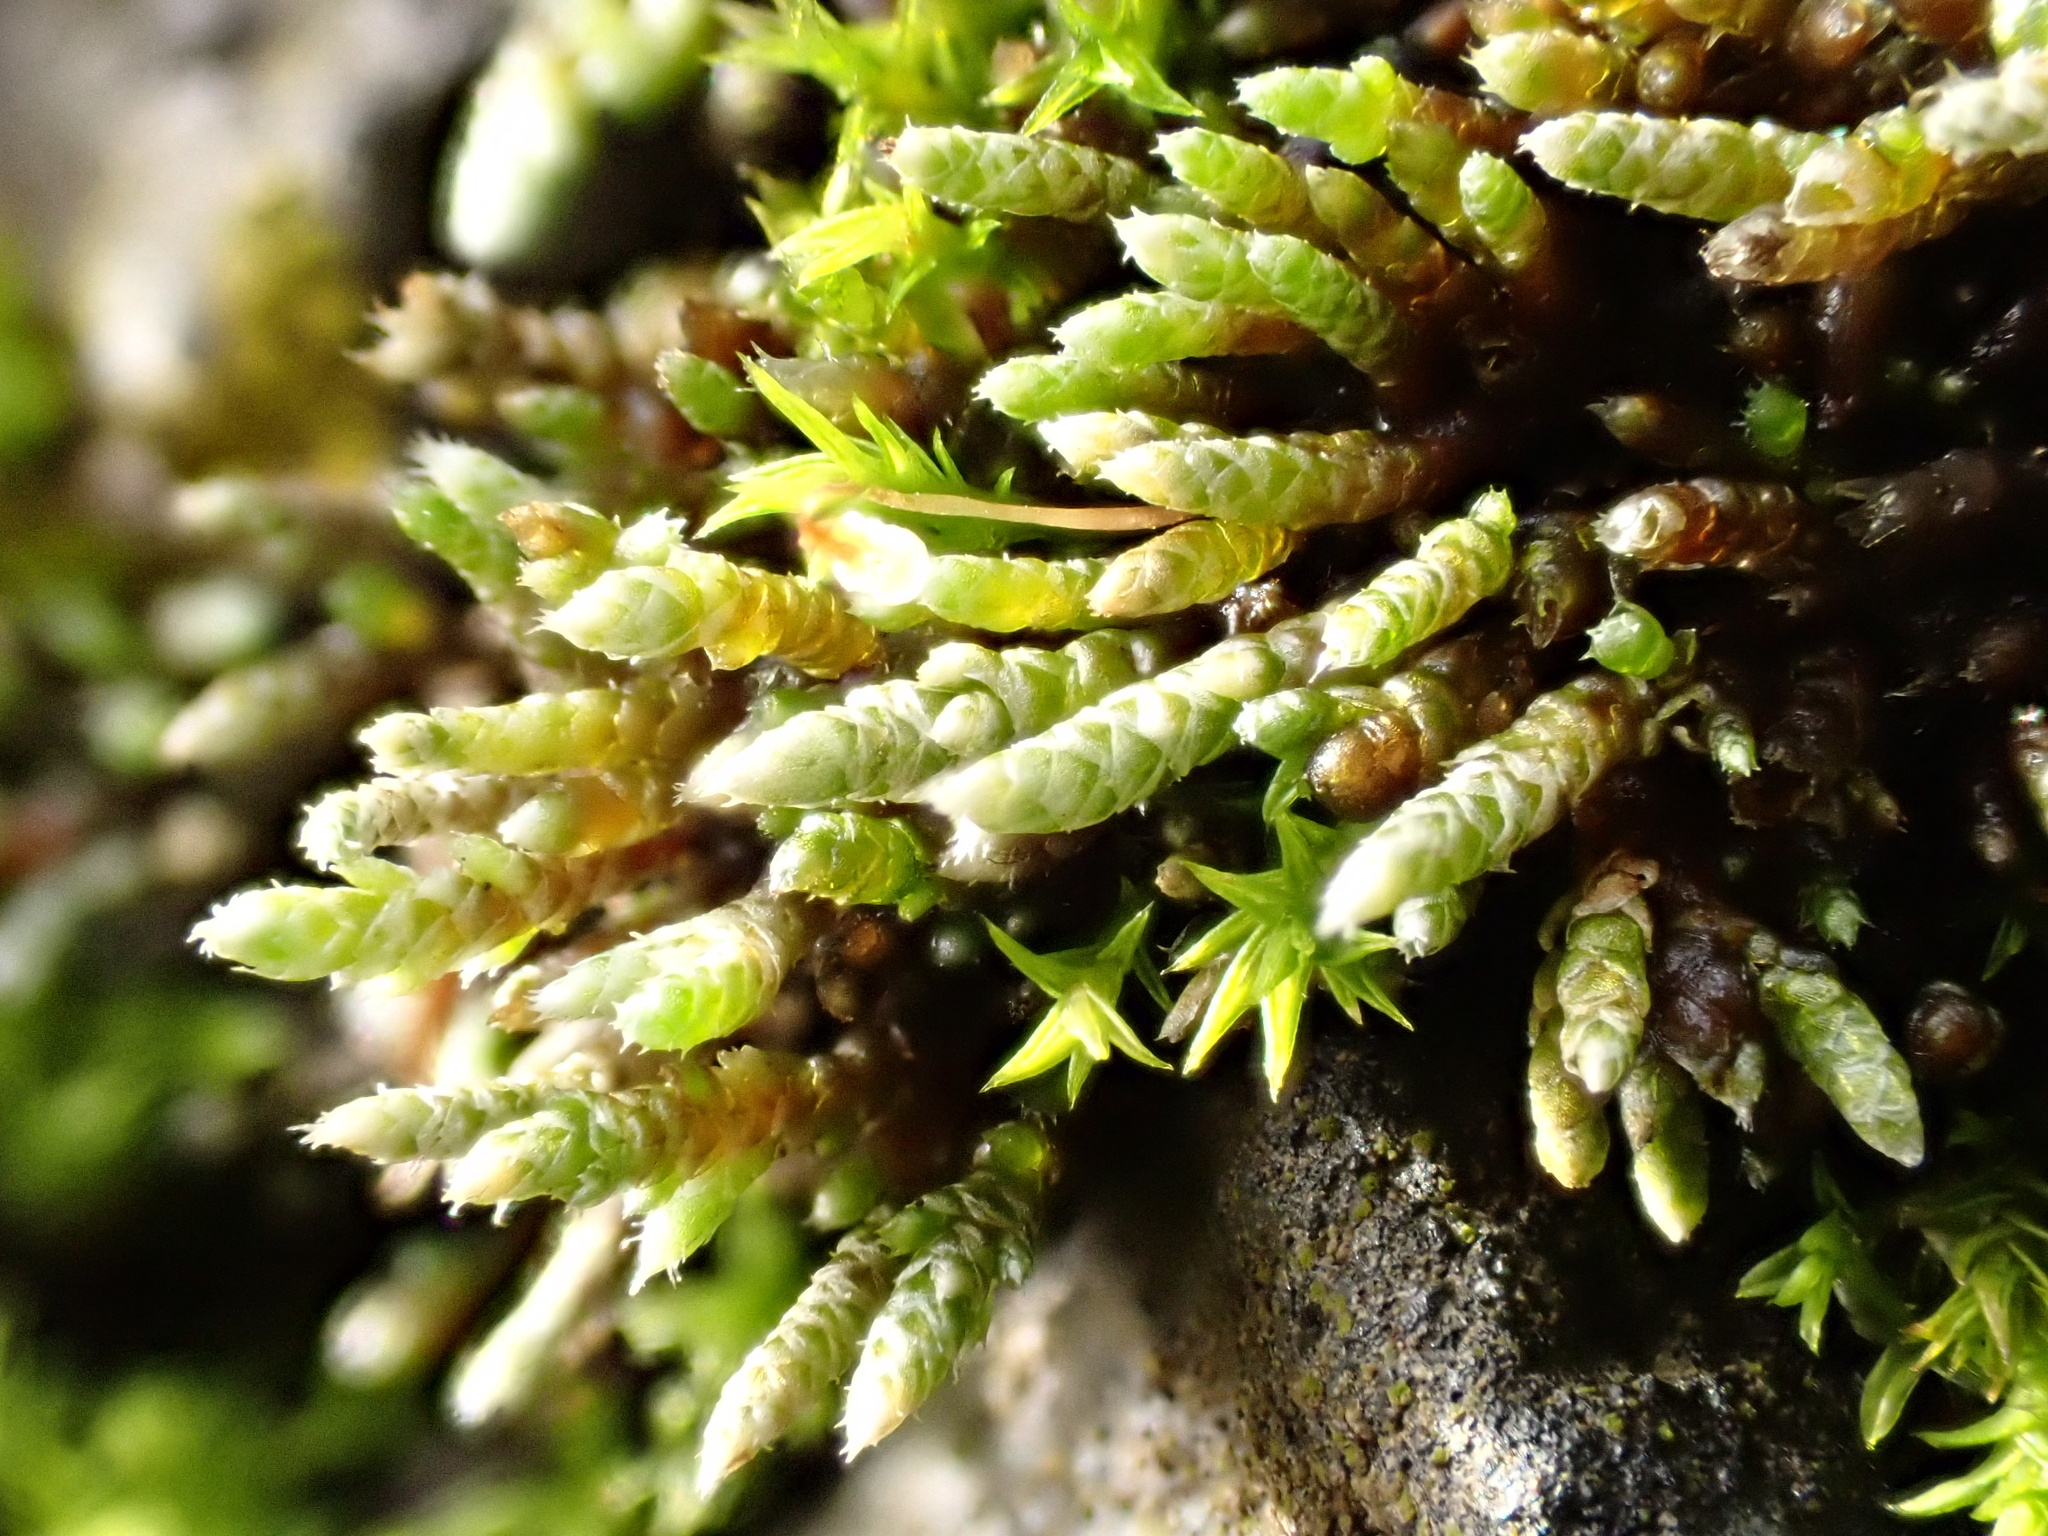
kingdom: Plantae
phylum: Bryophyta
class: Bryopsida
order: Bryales
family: Bryaceae
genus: Bryum
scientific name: Bryum argenteum
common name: Silver-moss
